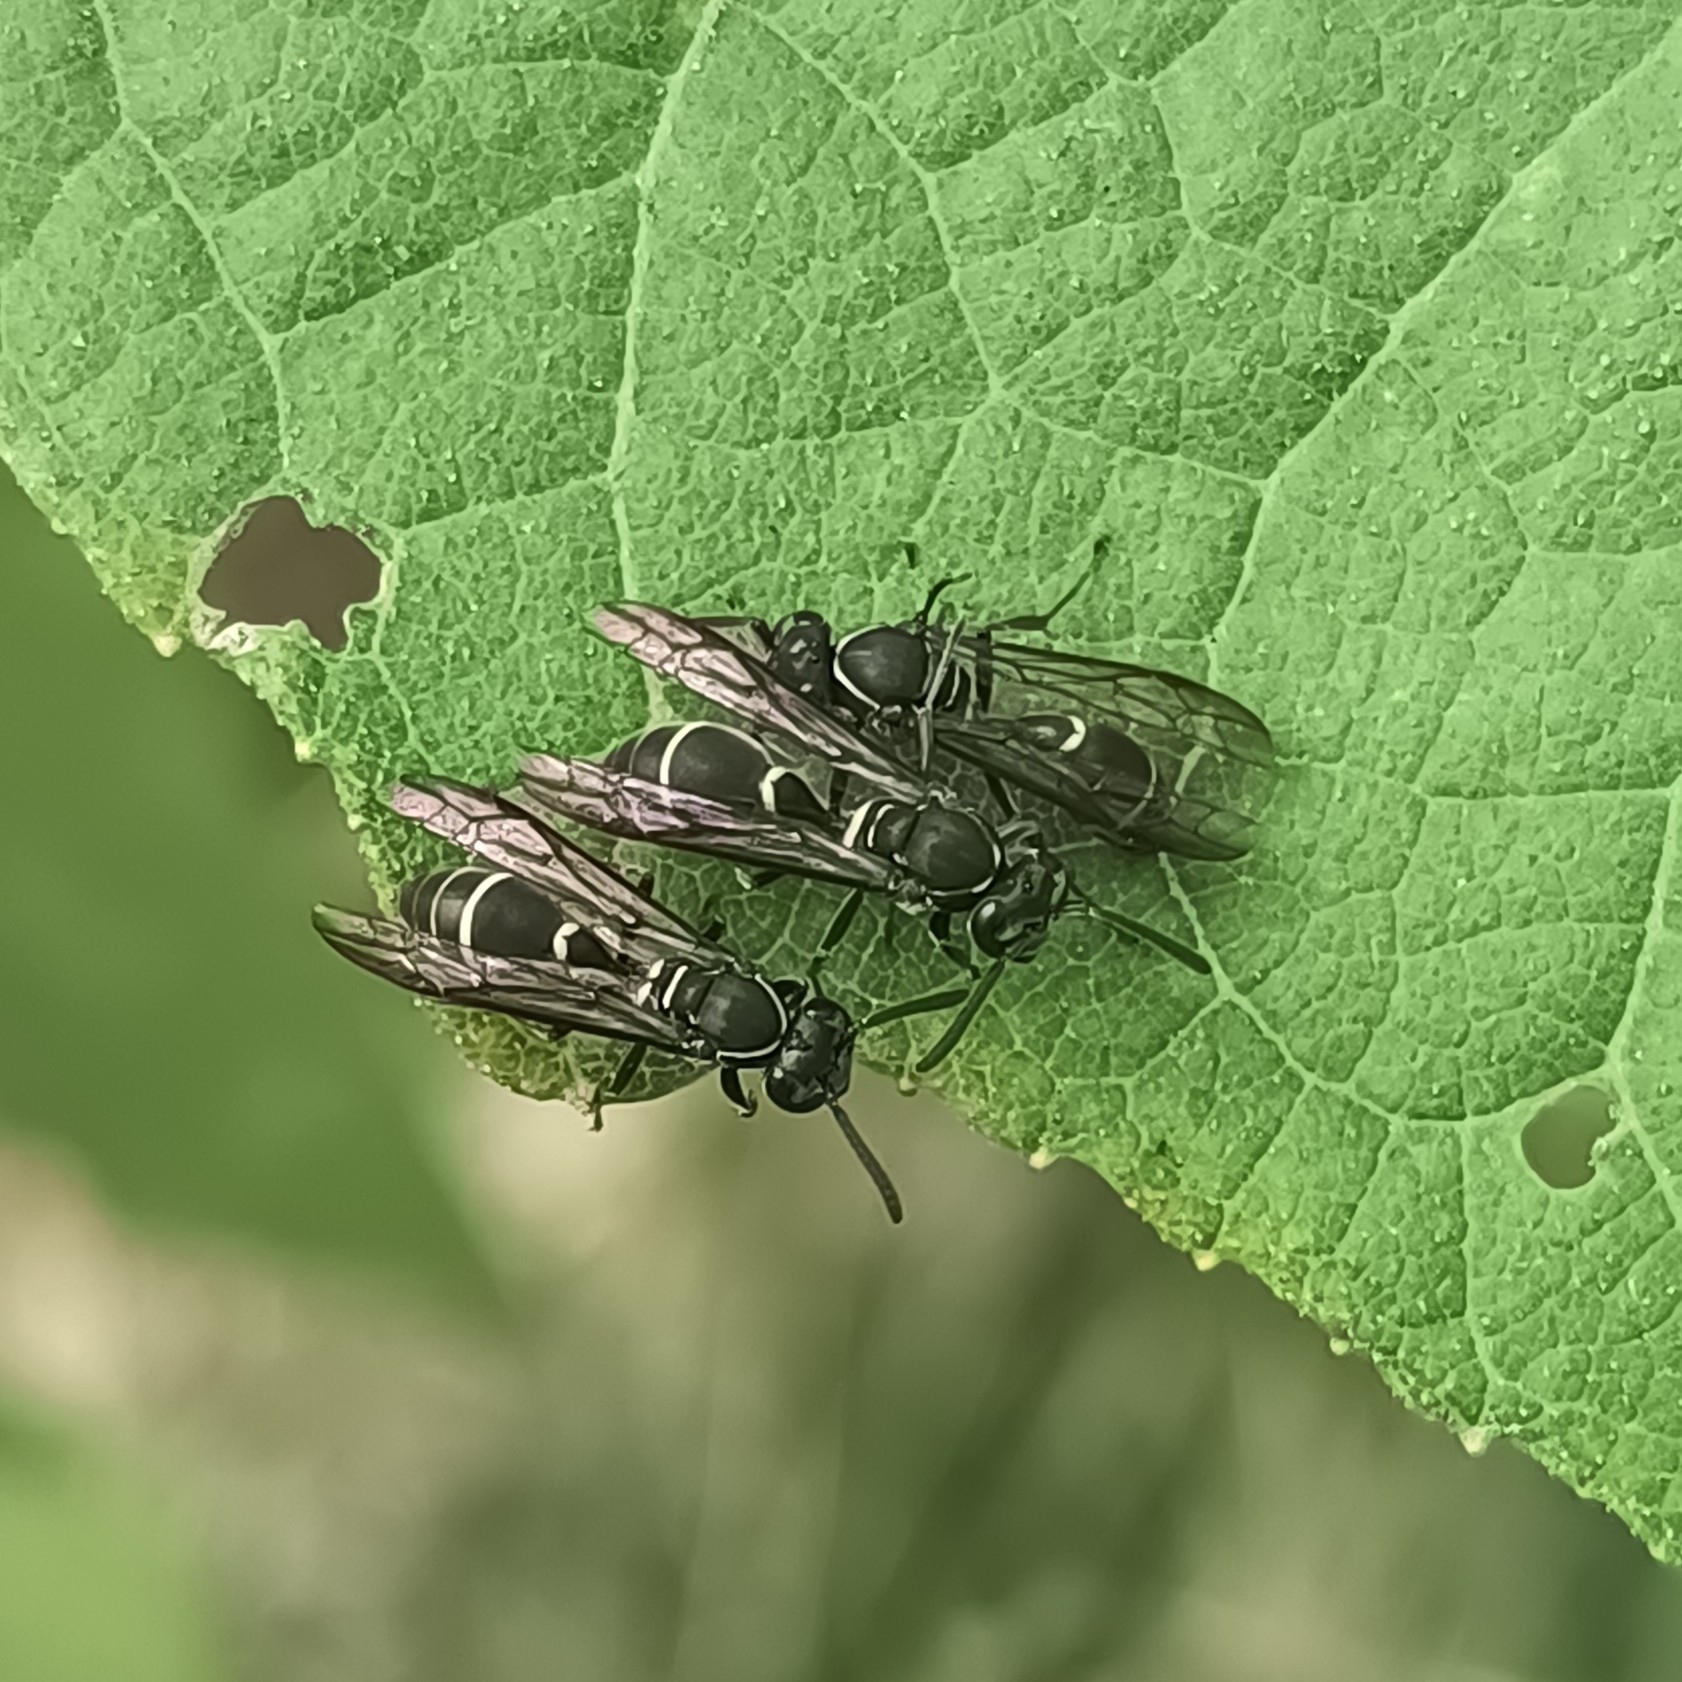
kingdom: Animalia
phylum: Arthropoda
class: Insecta
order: Hymenoptera
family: Eumenidae
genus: Polybia
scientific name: Polybia plebeja
